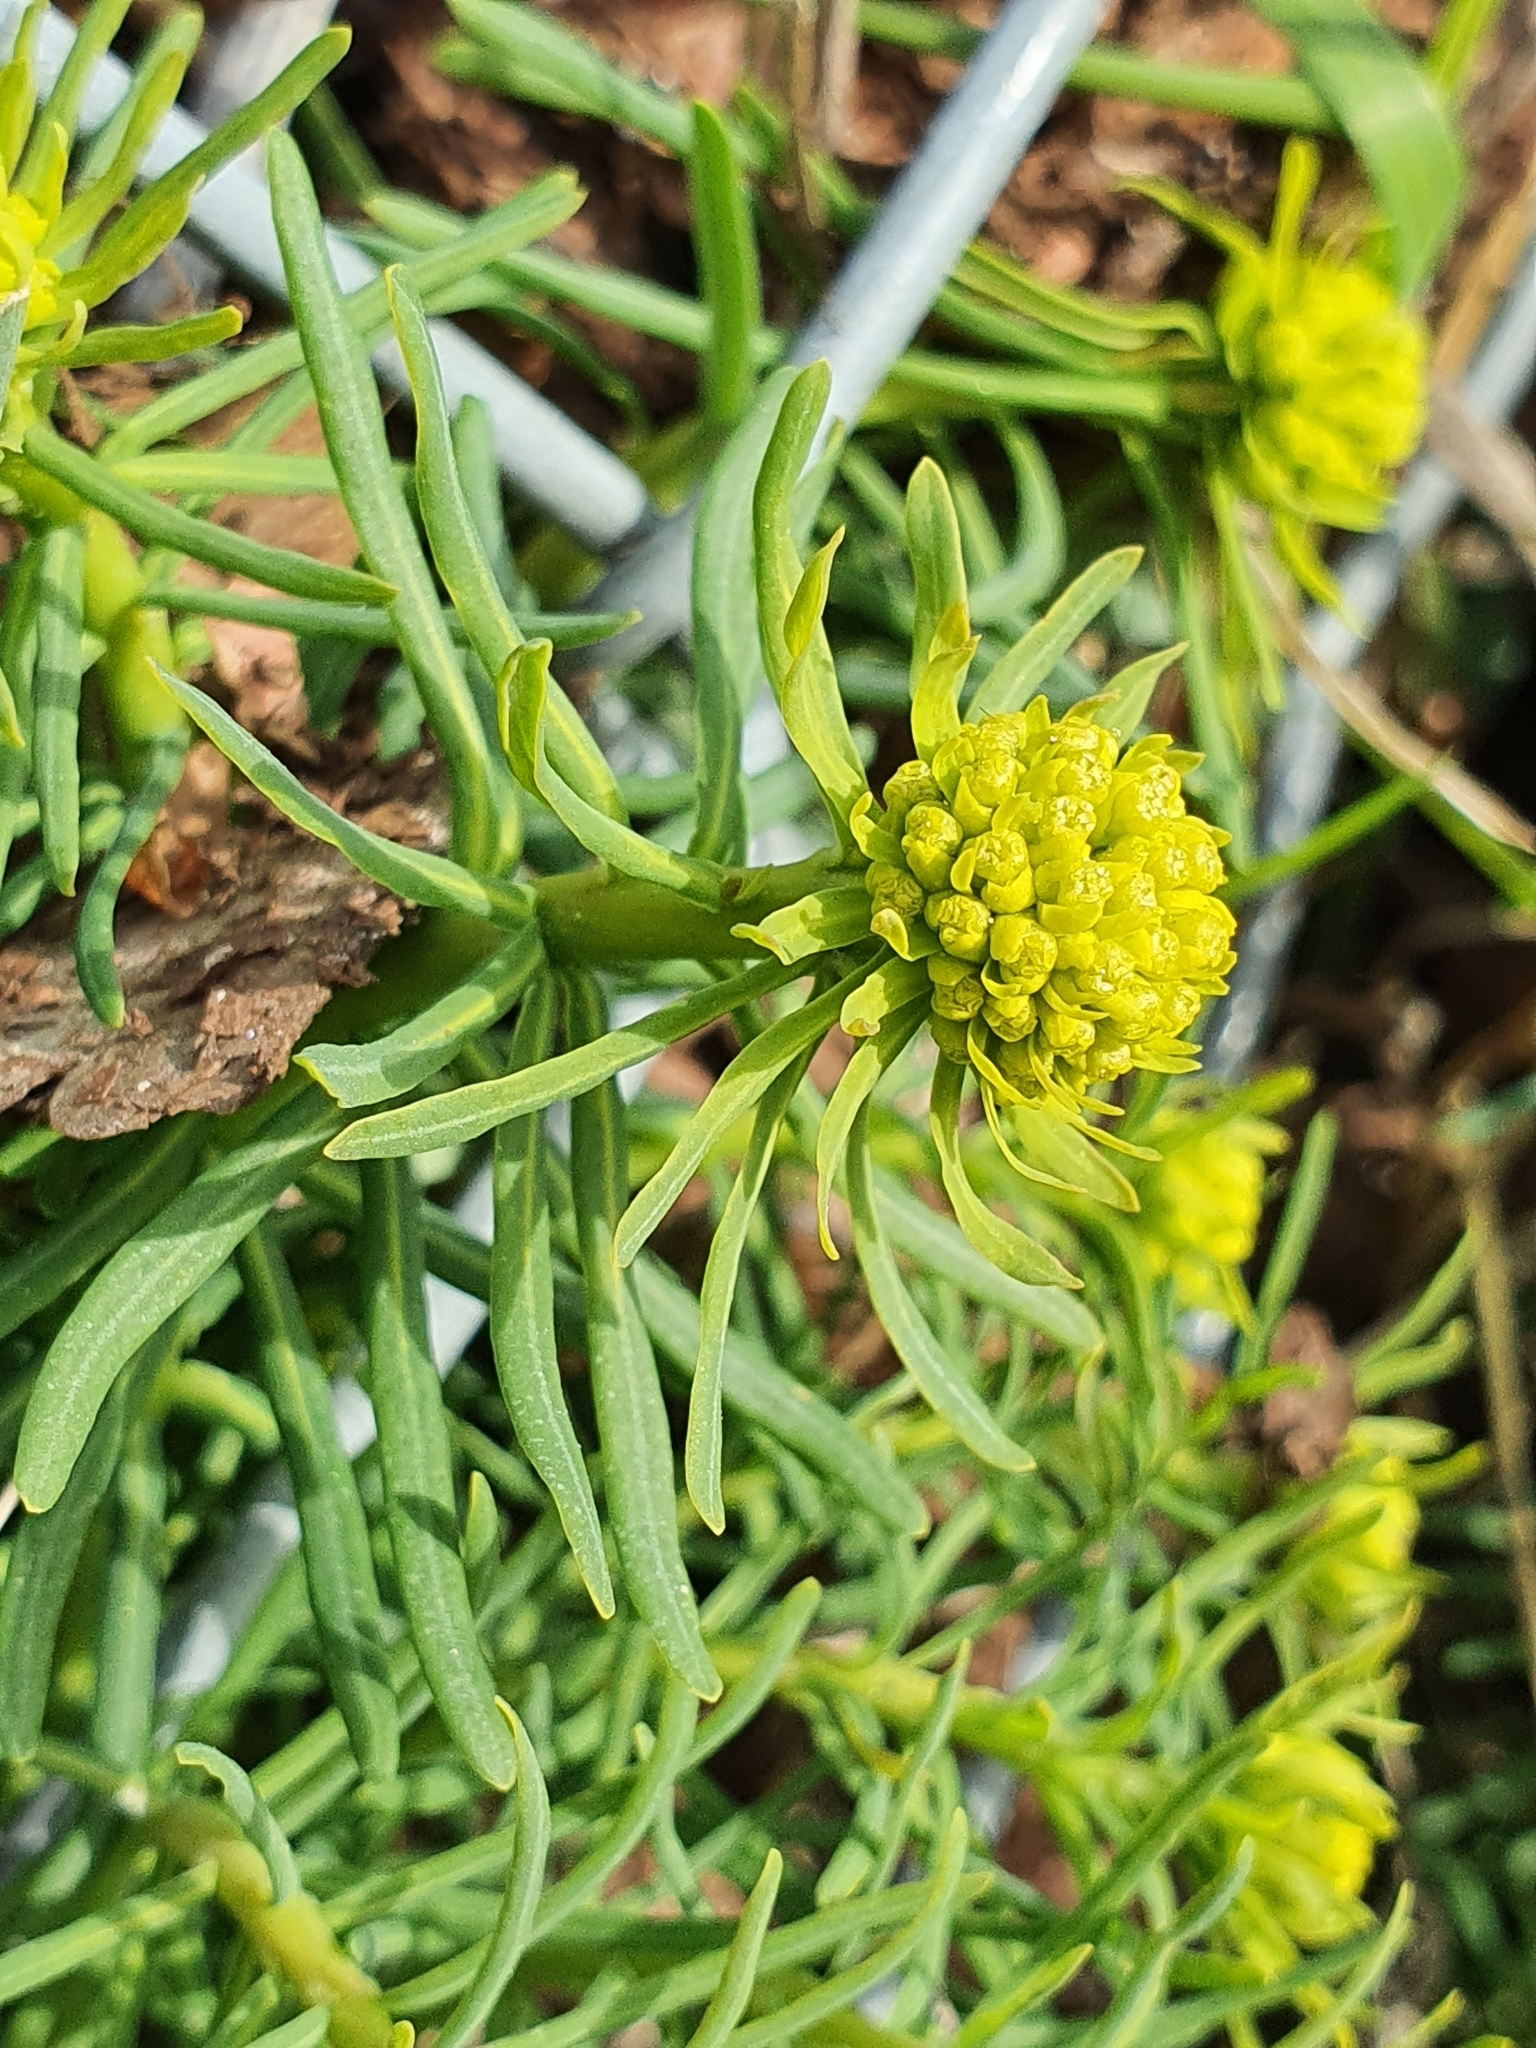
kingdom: Plantae
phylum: Tracheophyta
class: Magnoliopsida
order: Malpighiales
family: Euphorbiaceae
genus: Euphorbia
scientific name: Euphorbia cyparissias
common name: Cypress spurge
